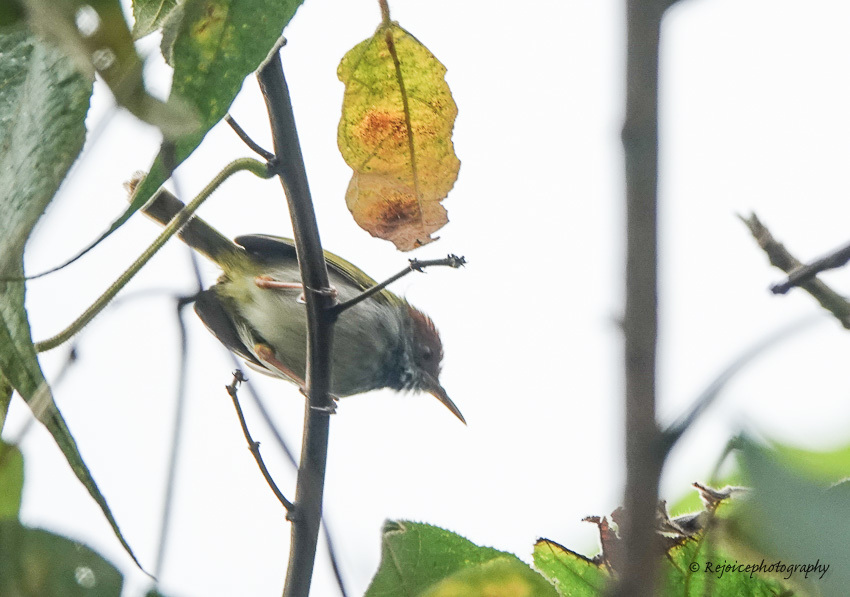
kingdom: Animalia
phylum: Chordata
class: Aves
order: Passeriformes
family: Cisticolidae
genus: Orthotomus
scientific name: Orthotomus atrogularis
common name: Dark-necked tailorbird
